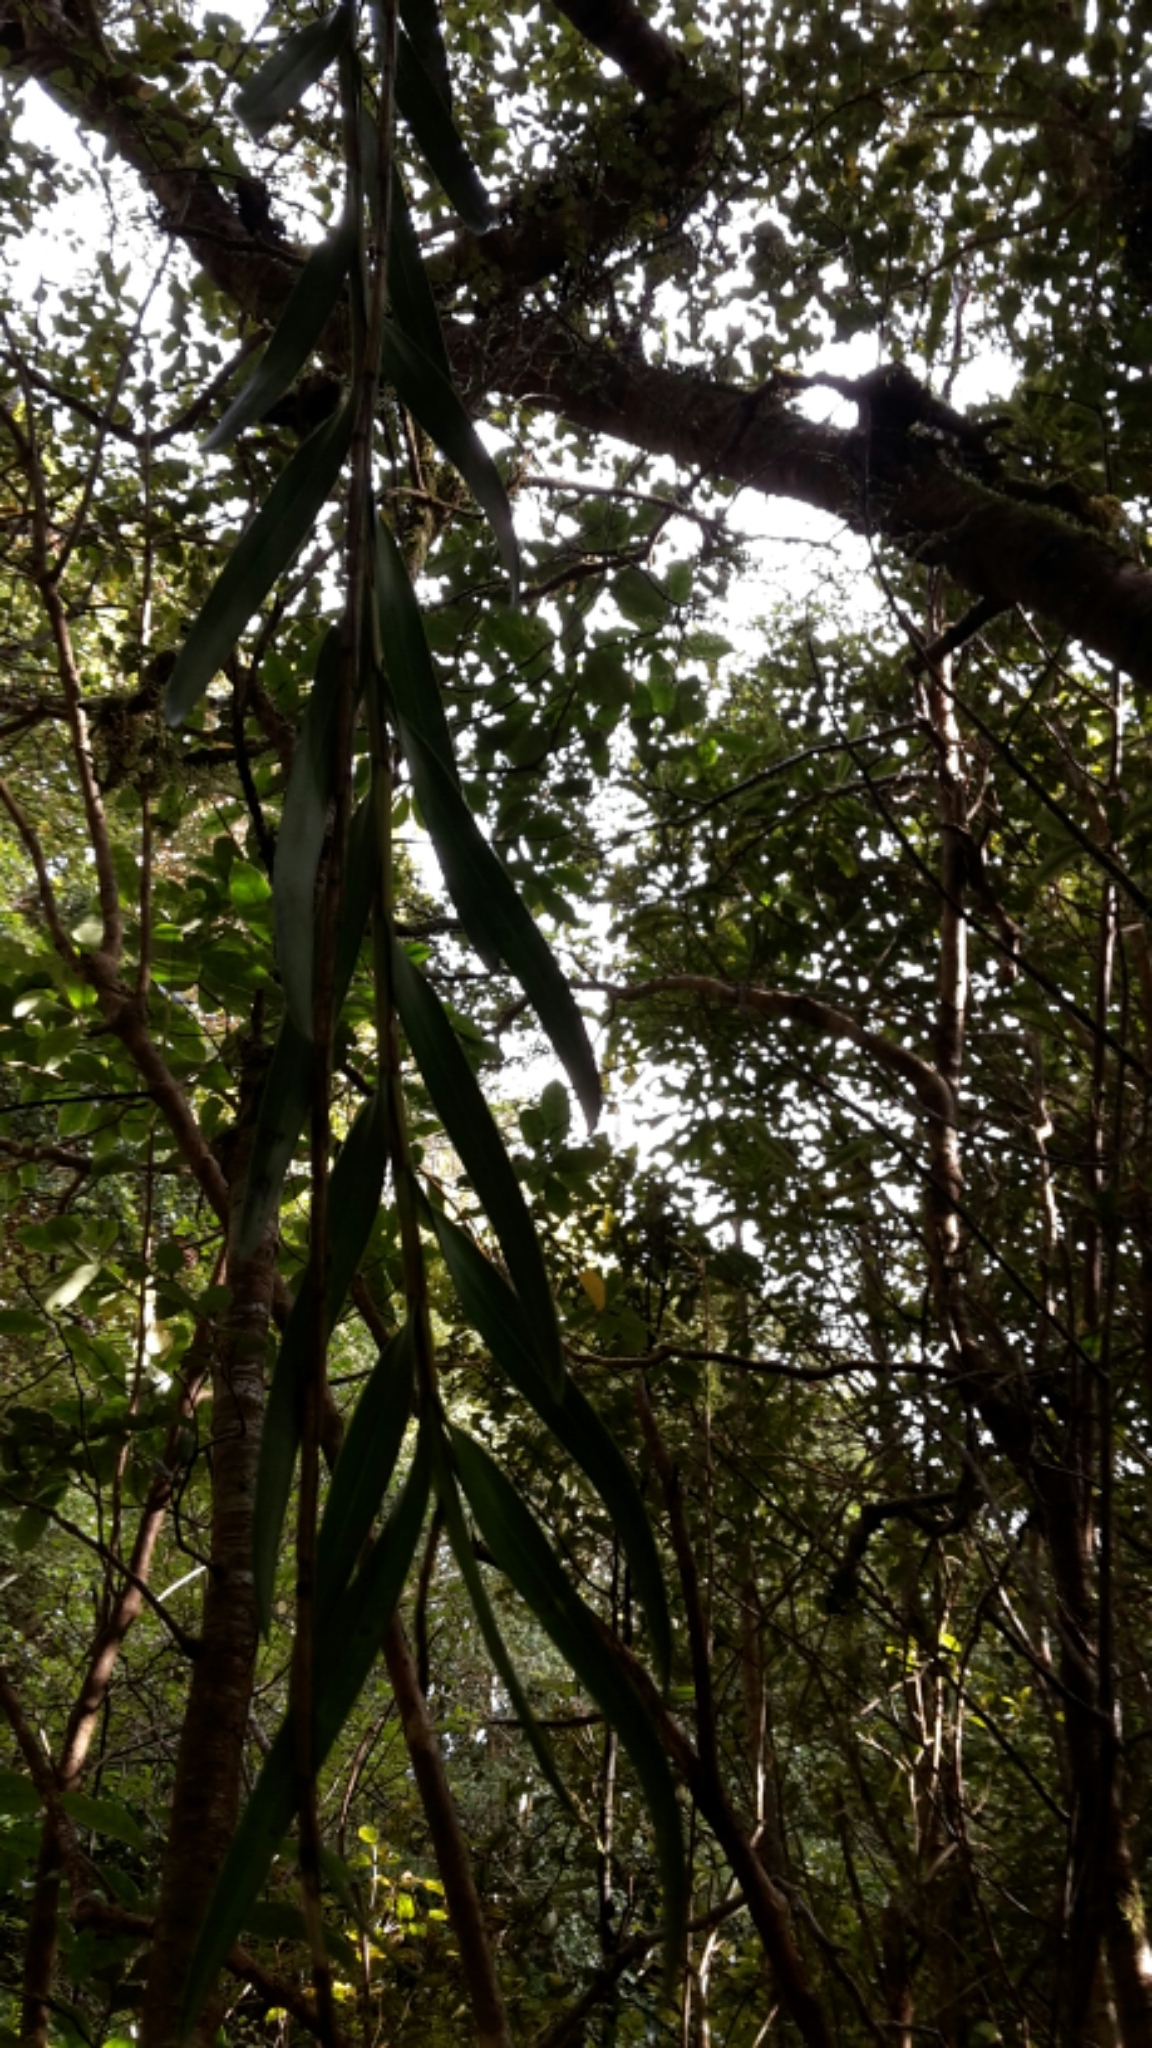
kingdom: Plantae
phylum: Tracheophyta
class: Liliopsida
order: Asparagales
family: Orchidaceae
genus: Earina
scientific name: Earina autumnalis
